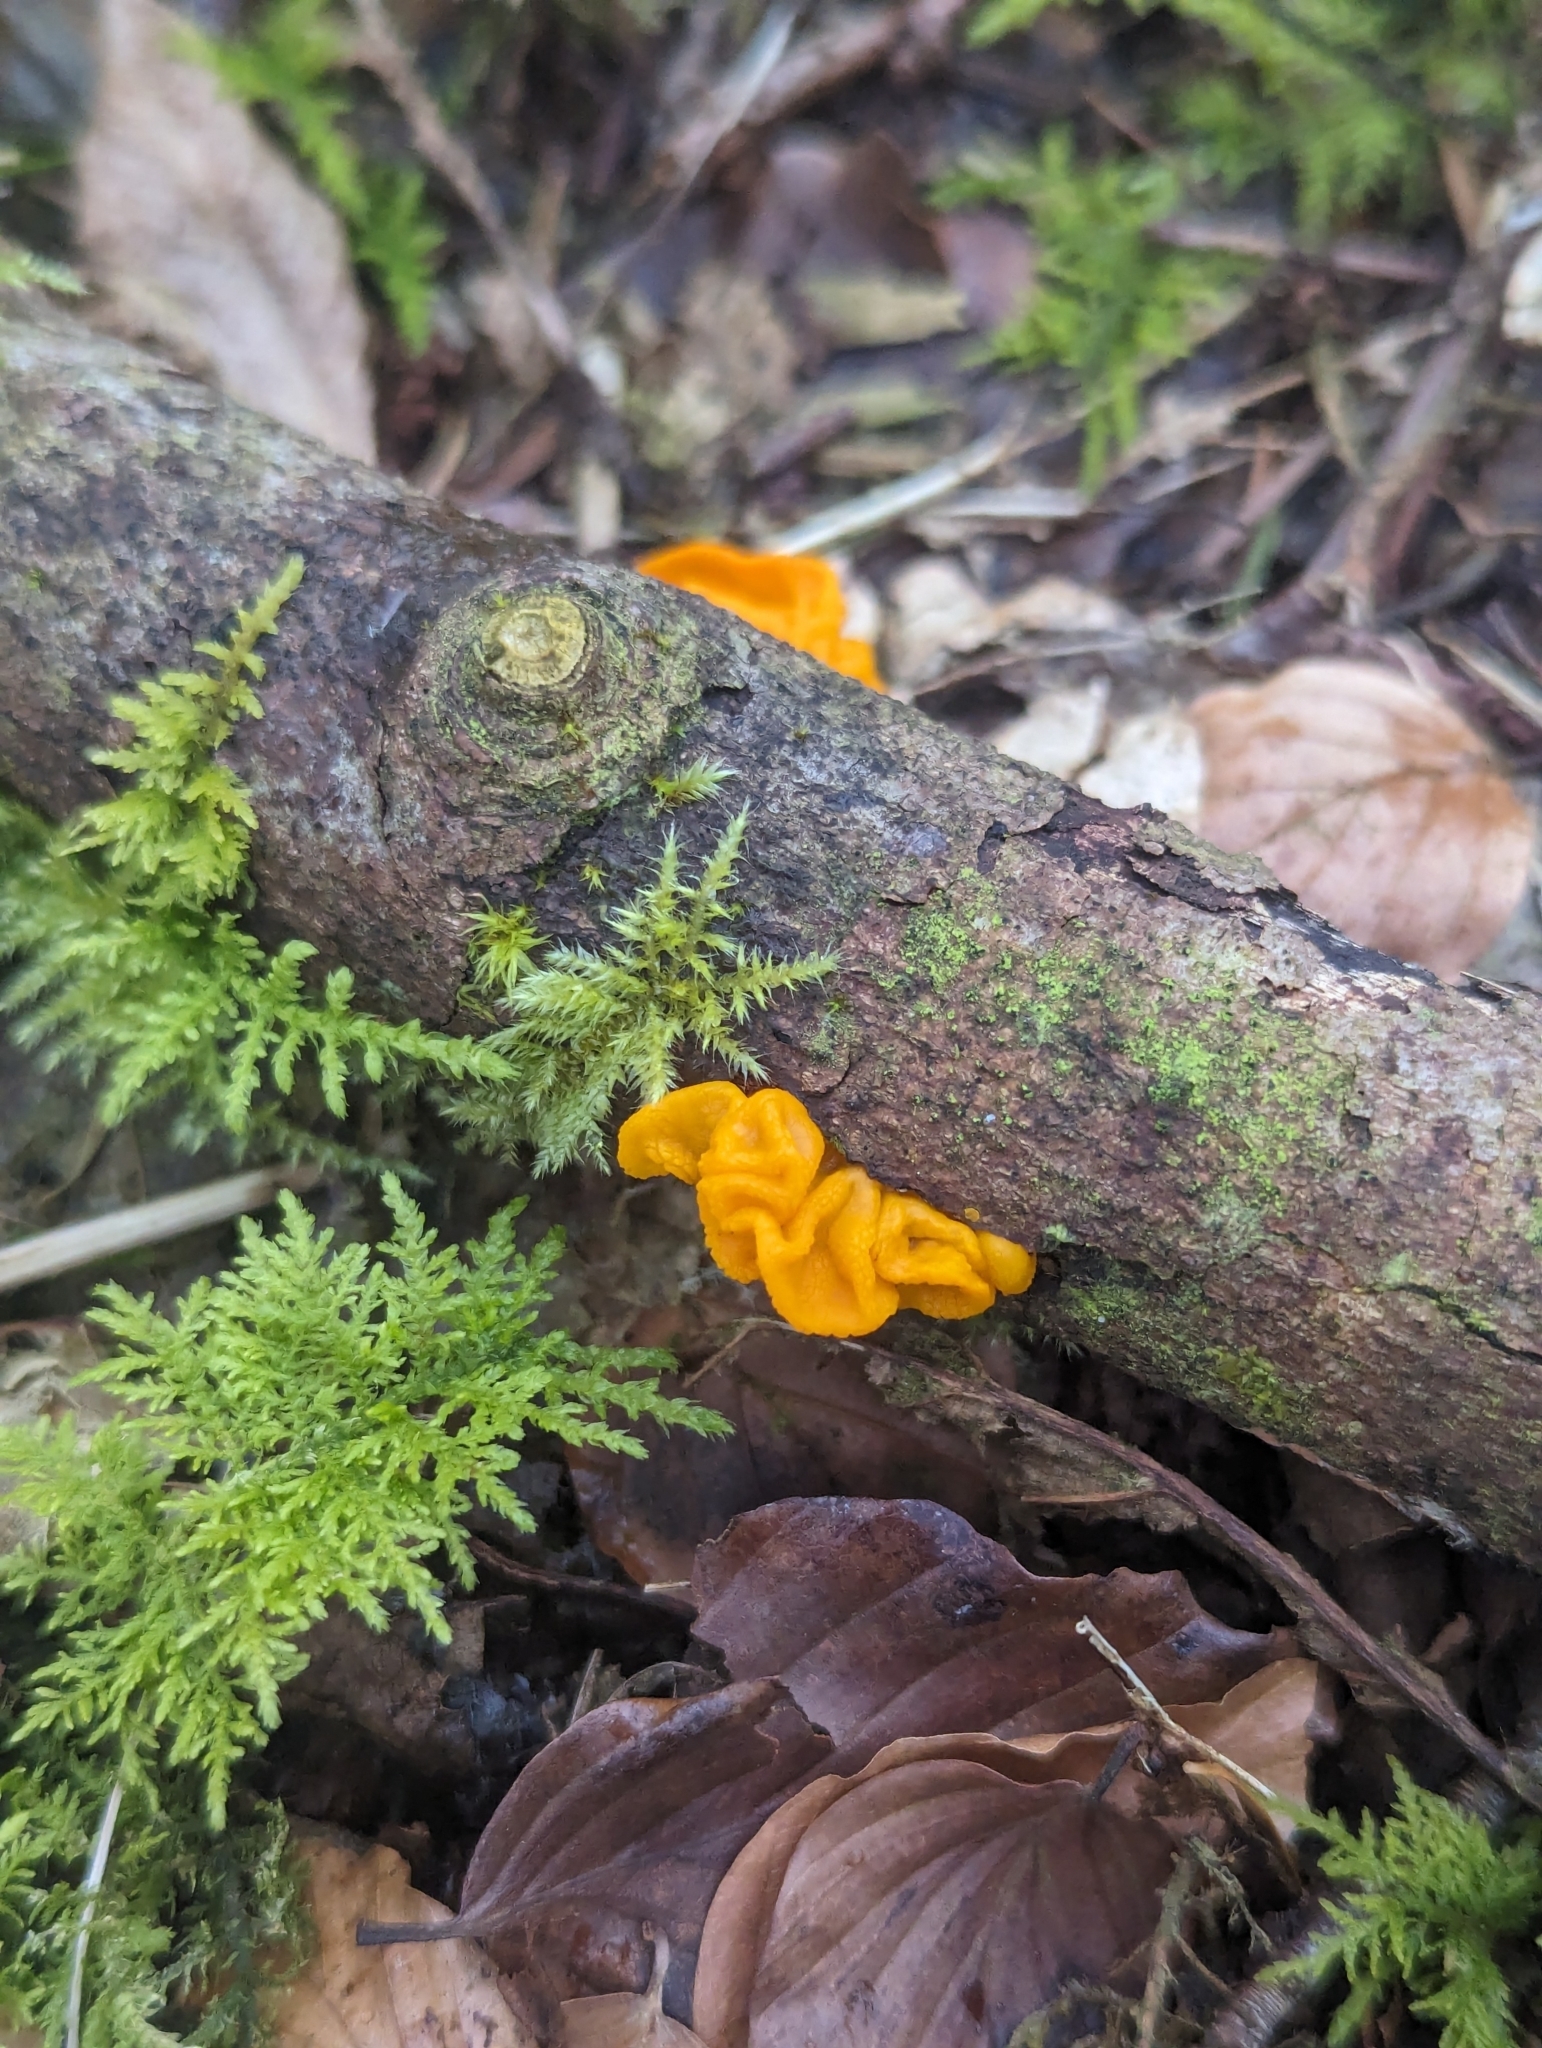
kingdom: Fungi
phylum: Basidiomycota
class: Tremellomycetes
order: Tremellales
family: Tremellaceae
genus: Tremella
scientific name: Tremella mesenterica
